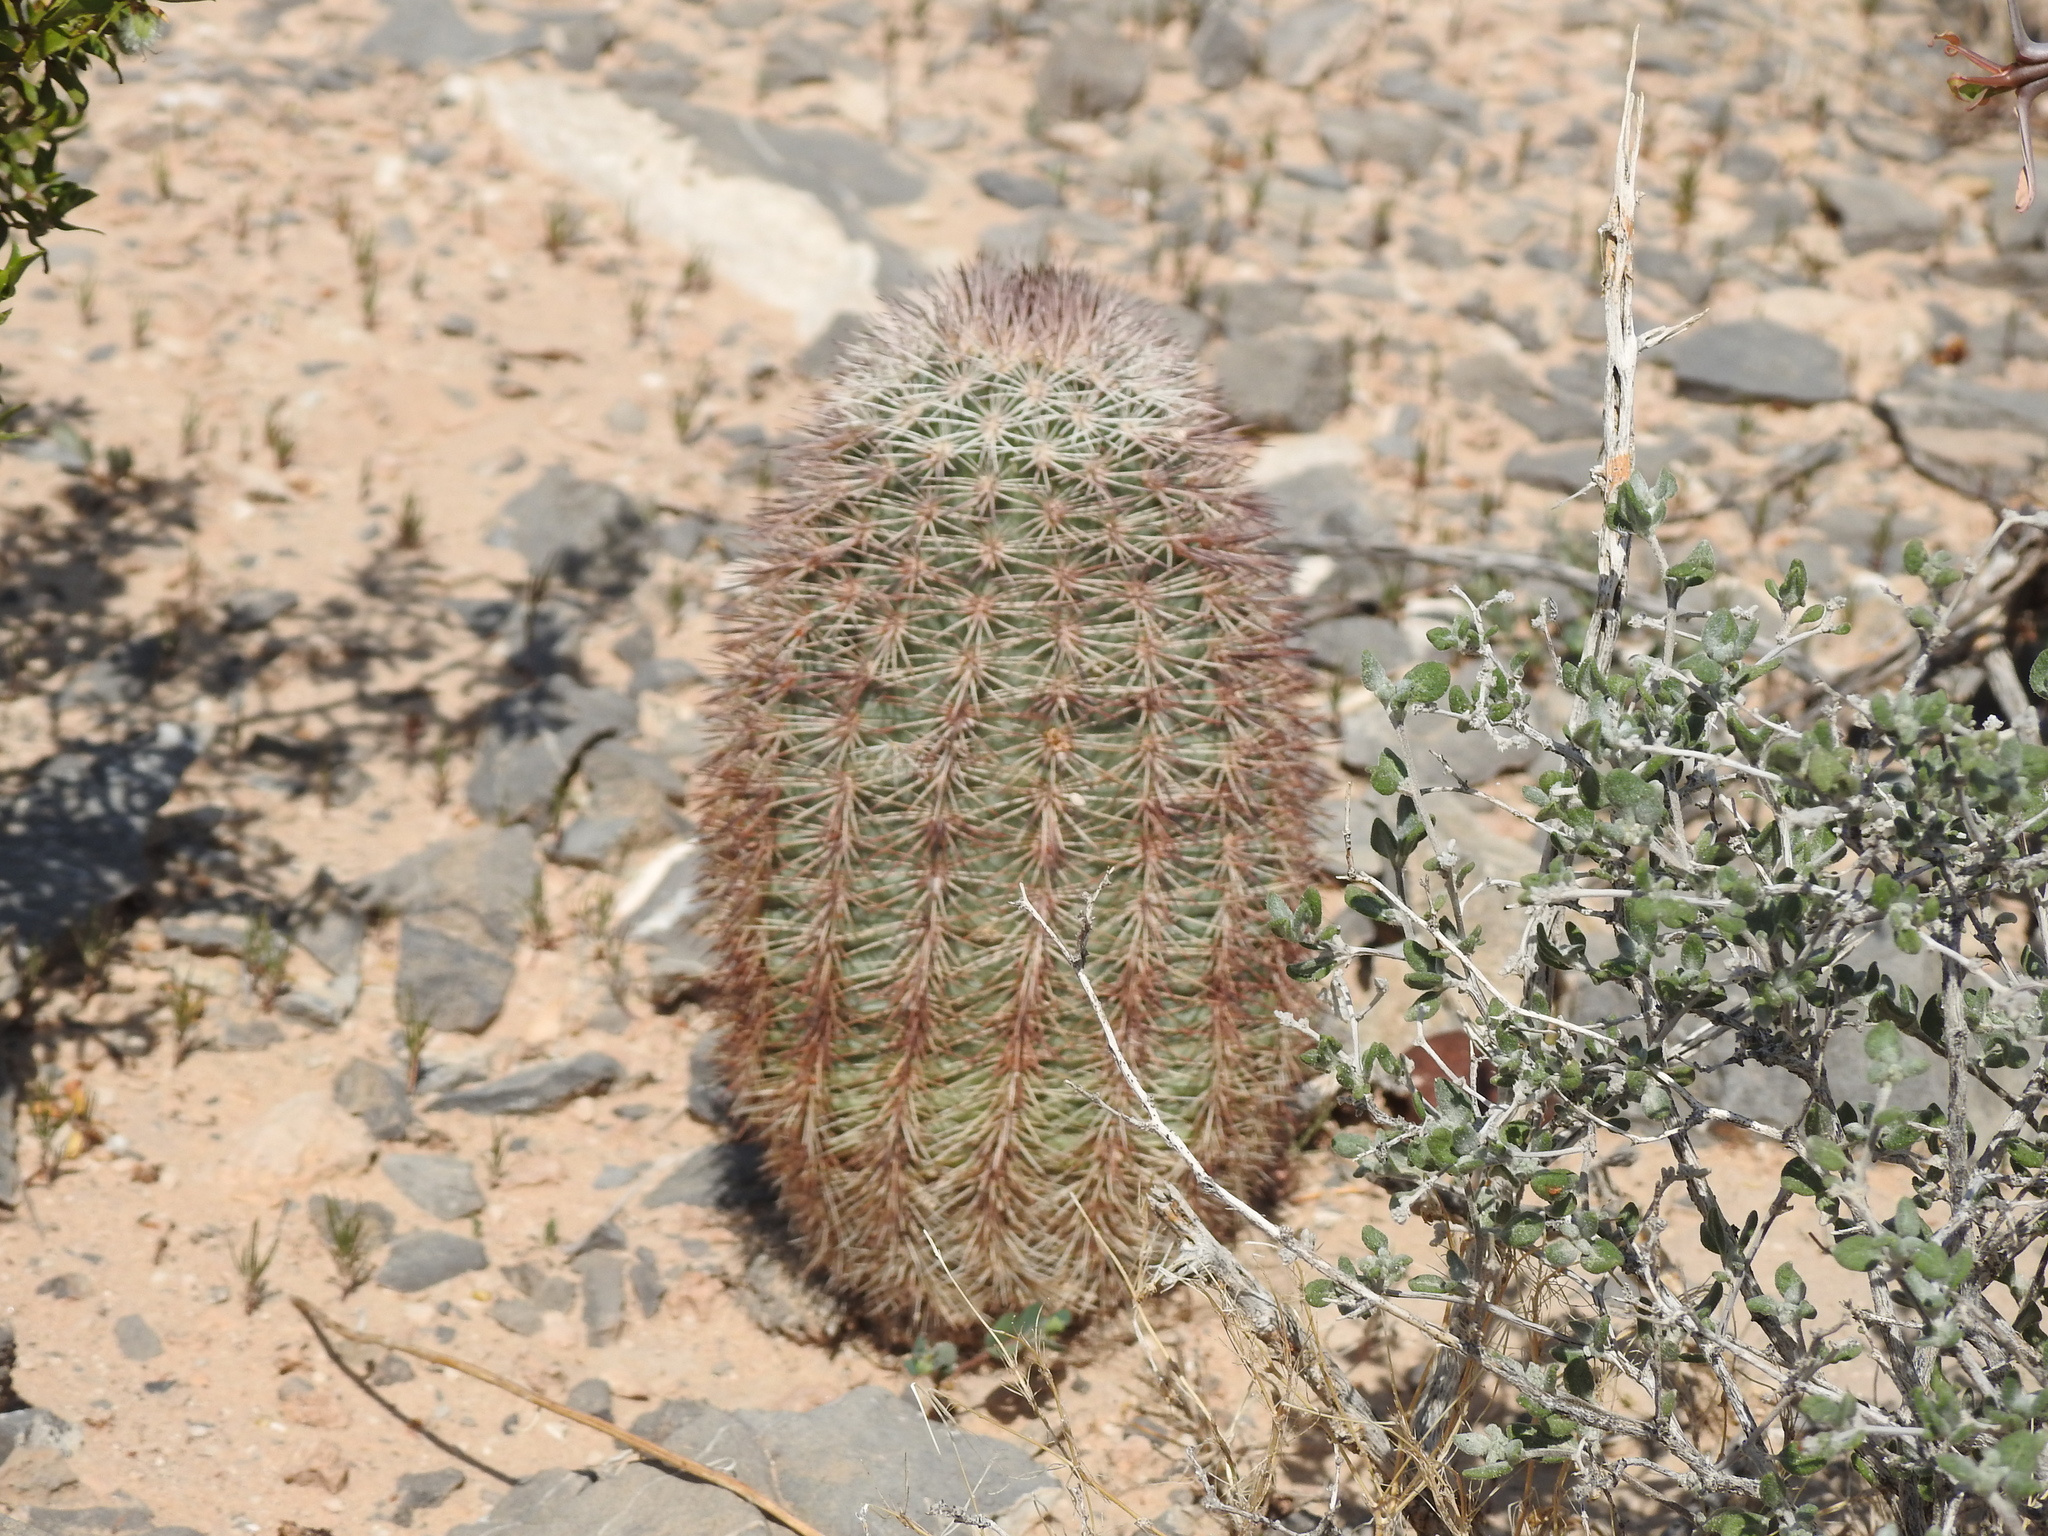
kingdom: Plantae
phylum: Tracheophyta
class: Magnoliopsida
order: Caryophyllales
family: Cactaceae
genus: Echinocereus
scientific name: Echinocereus dasyacanthus
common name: Spiny hedgehog cactus
